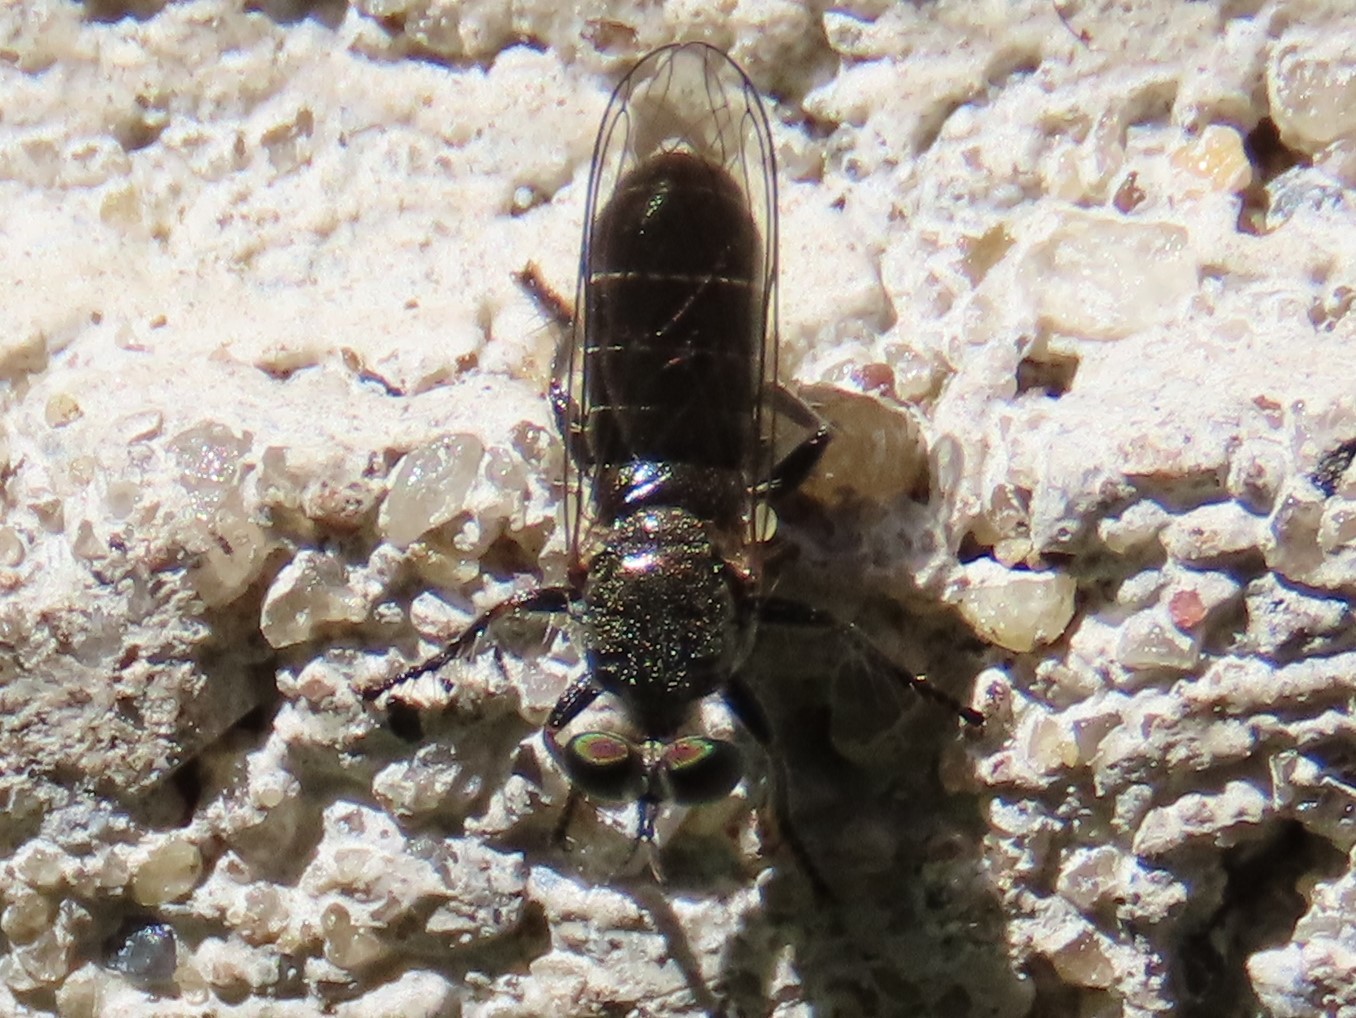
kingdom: Animalia
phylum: Arthropoda
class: Insecta
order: Diptera
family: Asilidae
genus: Atomosia
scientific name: Atomosia puella
